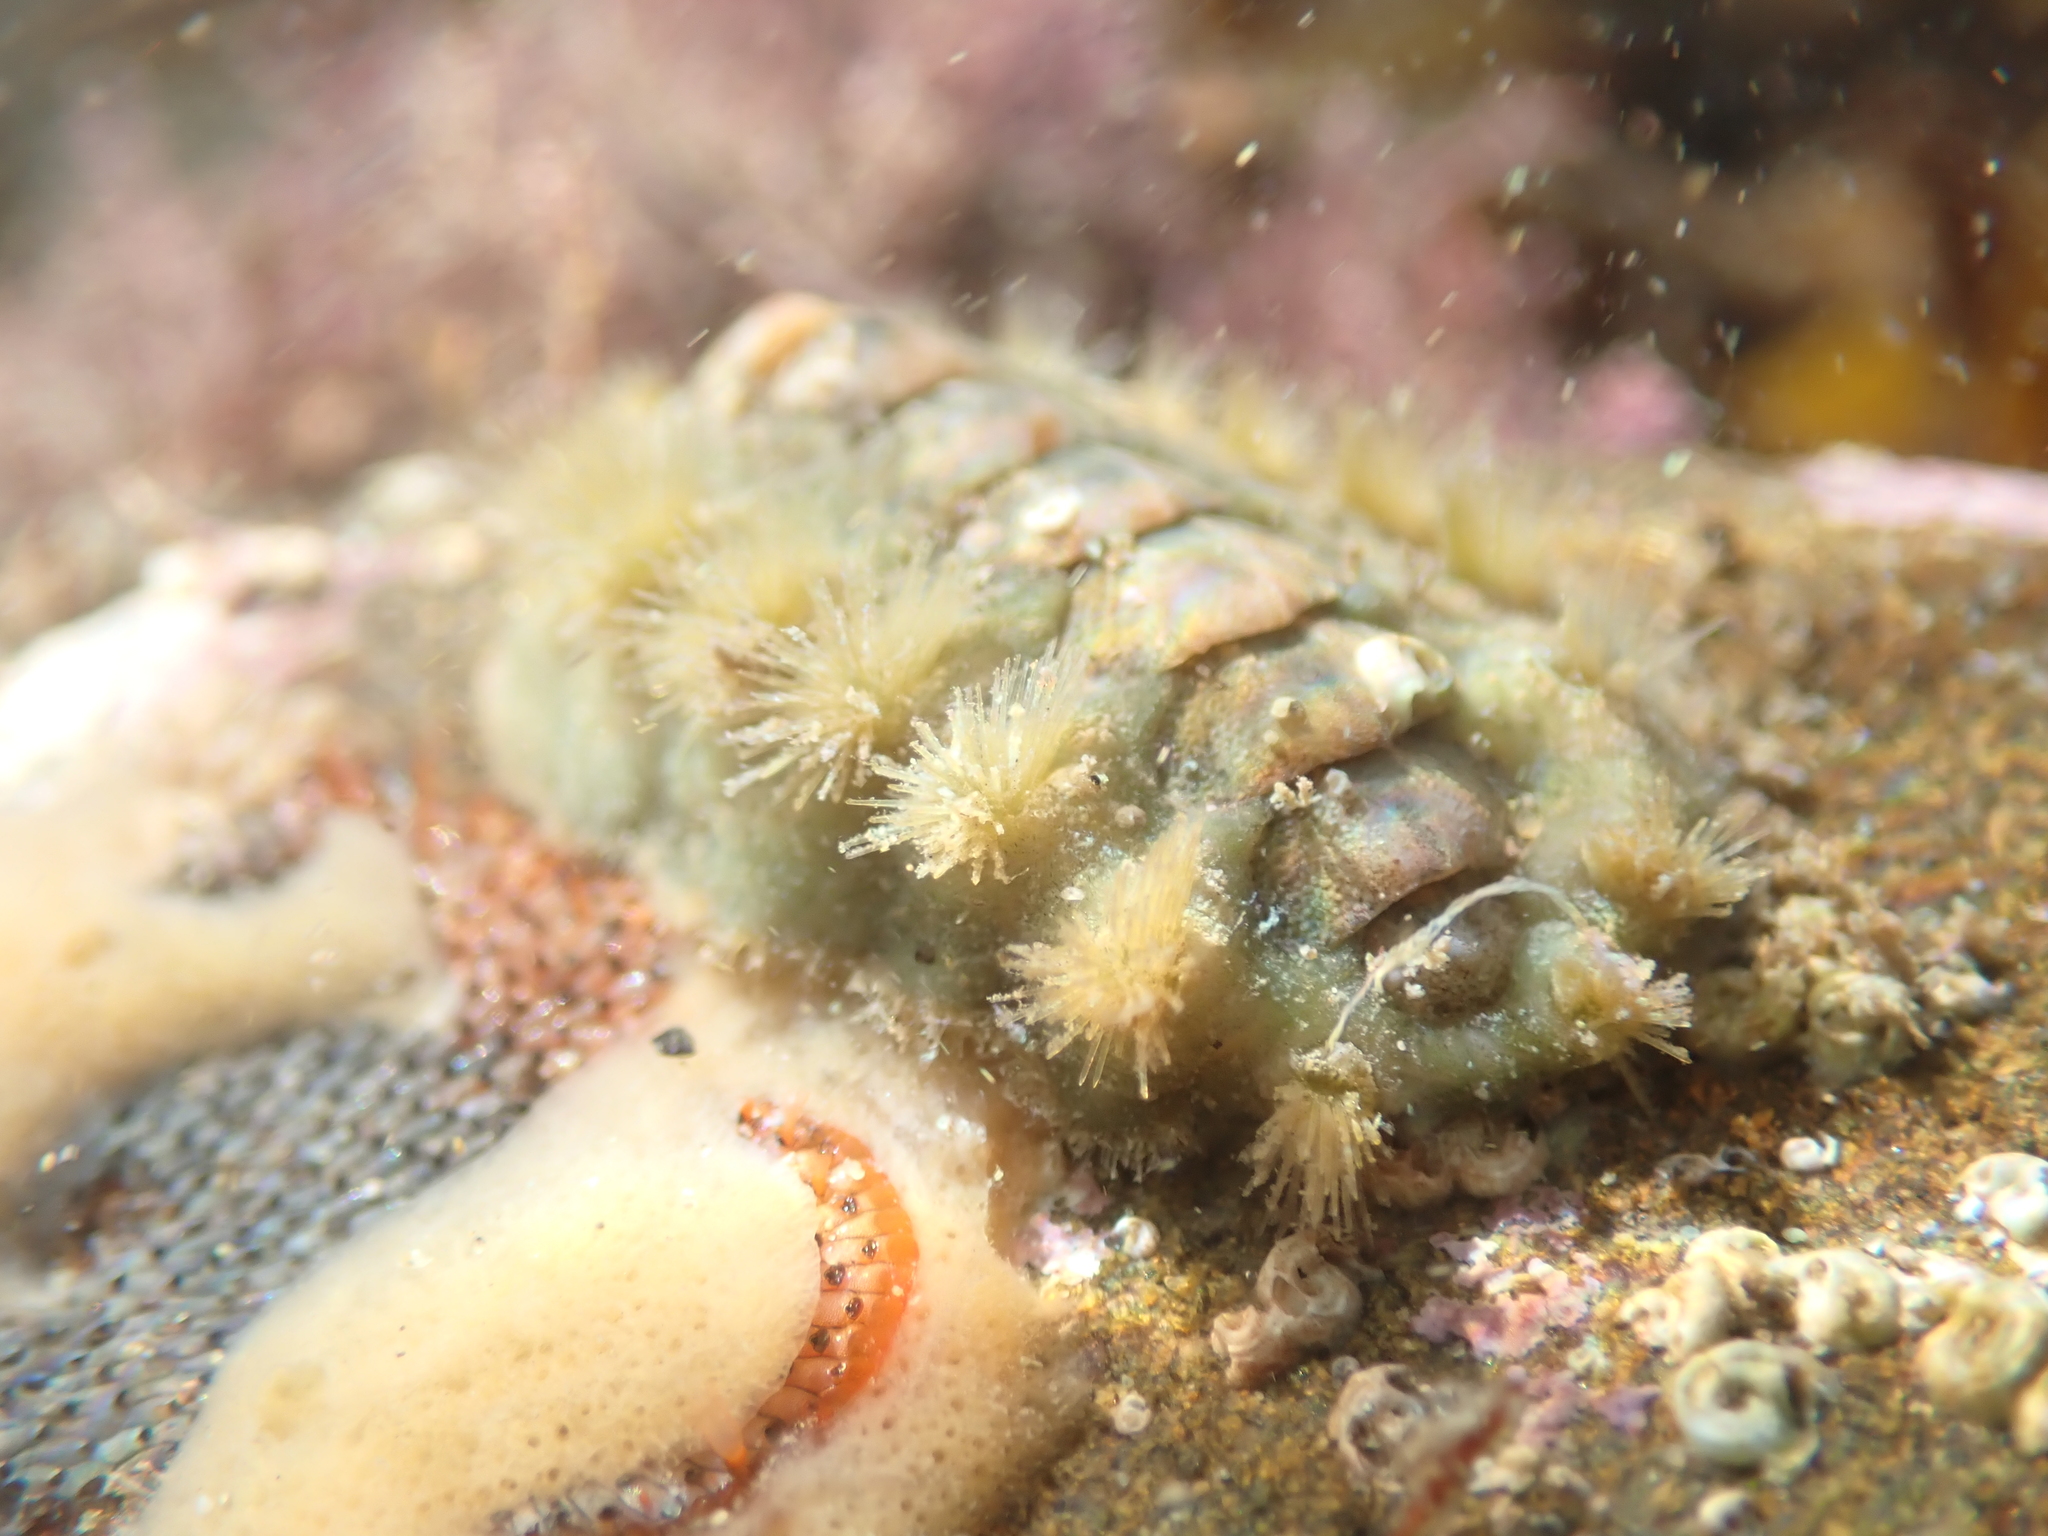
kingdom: Animalia
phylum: Mollusca
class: Polyplacophora
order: Chitonida
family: Acanthochitonidae
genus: Acanthochitona
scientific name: Acanthochitona zelandica
